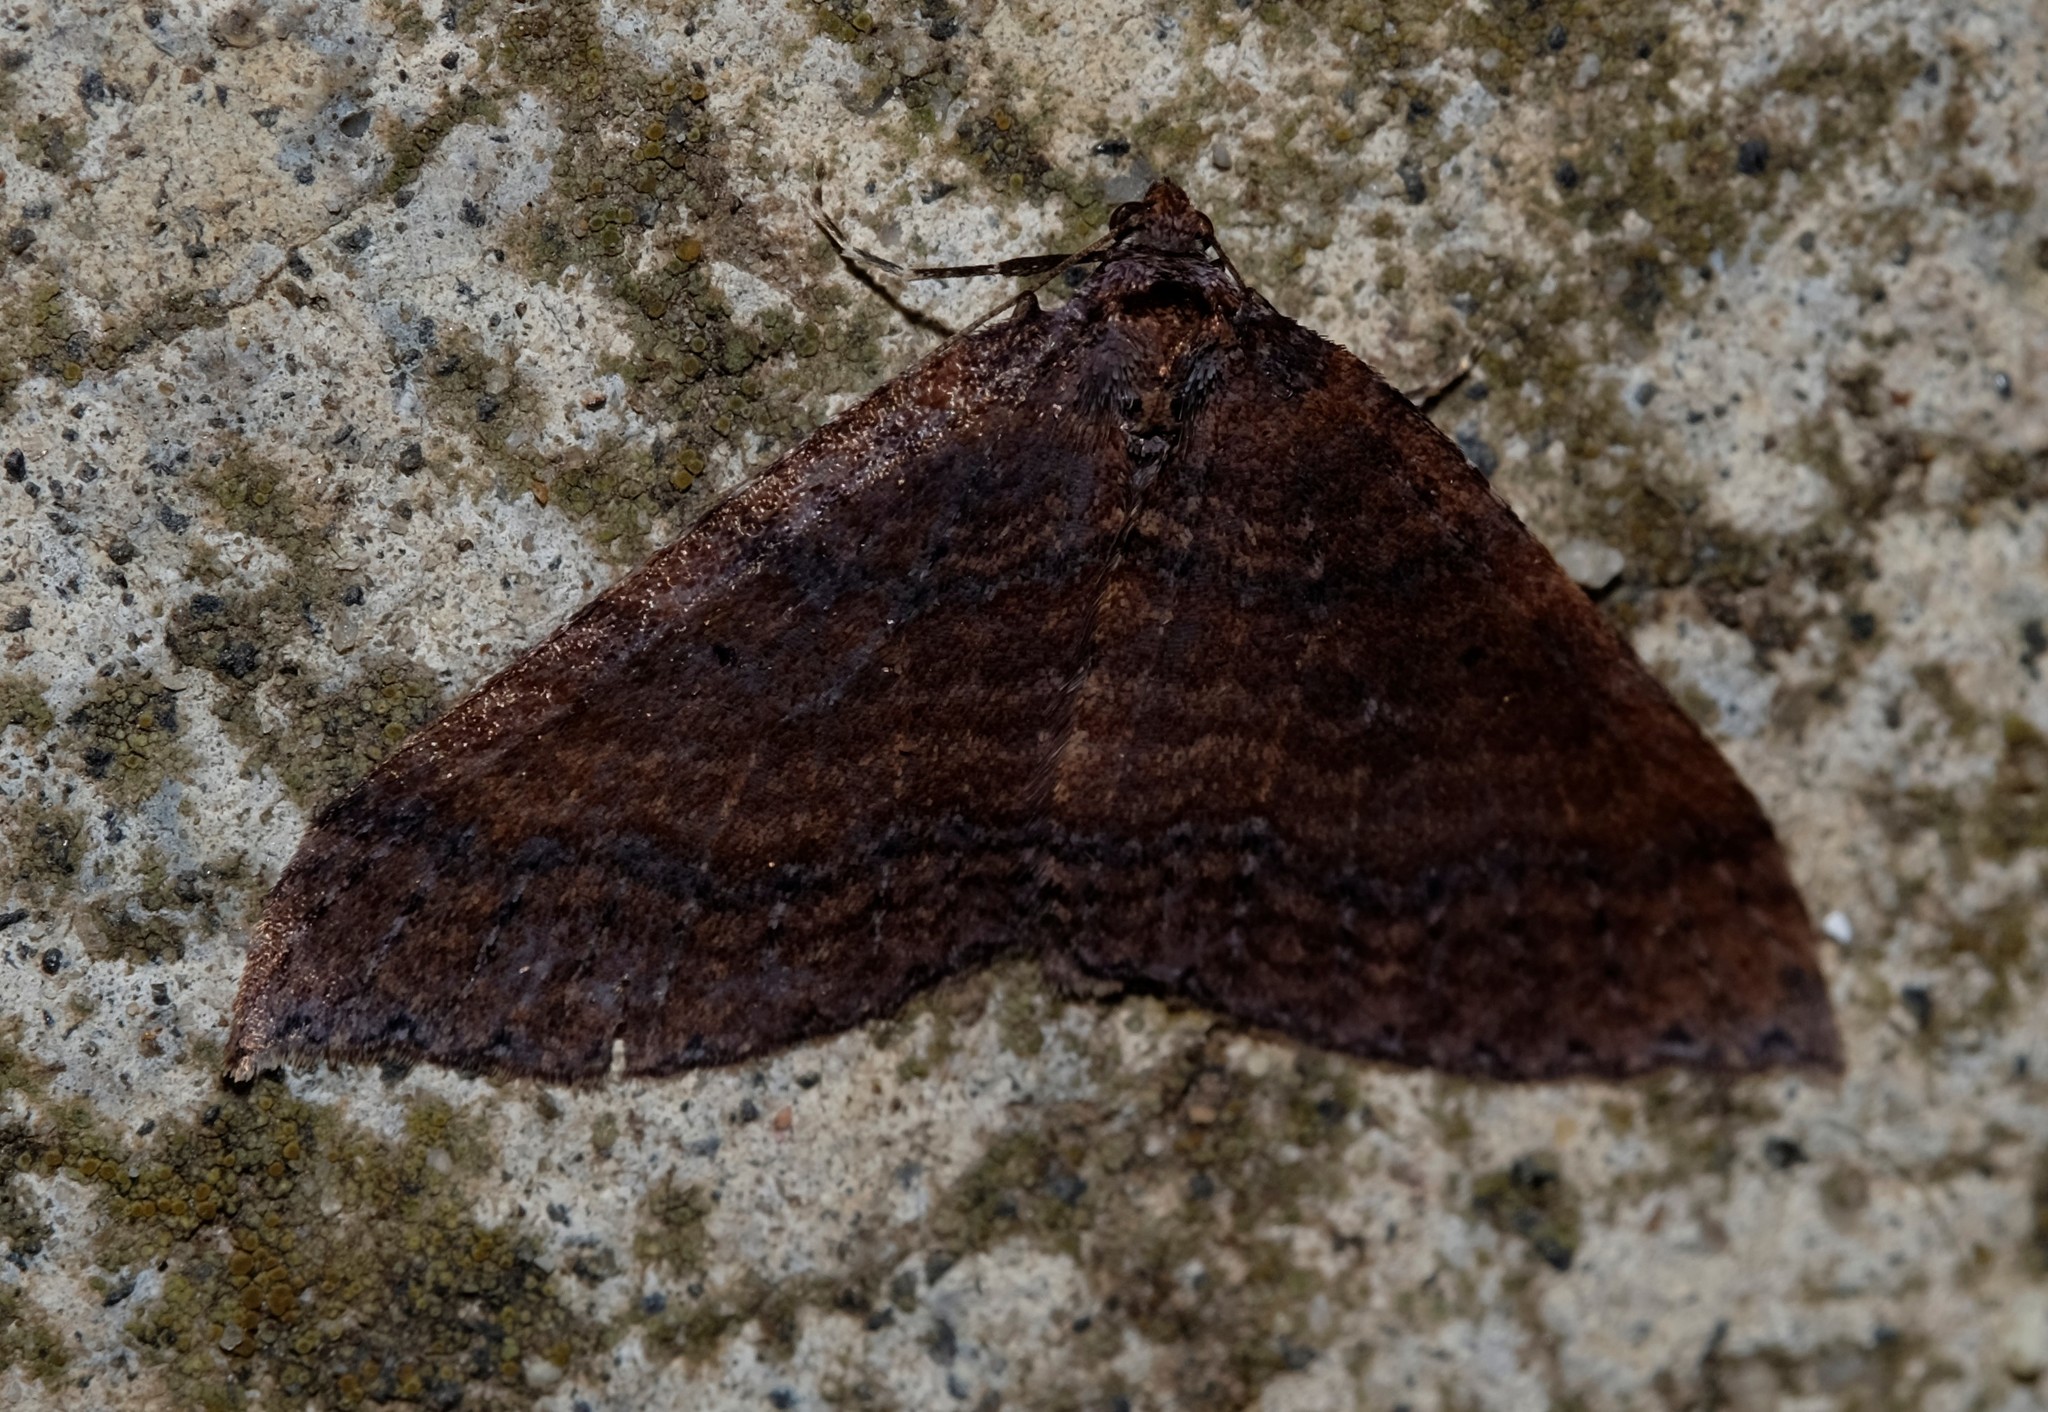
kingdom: Animalia
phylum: Arthropoda
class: Insecta
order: Lepidoptera
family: Geometridae
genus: Larentia
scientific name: Larentia apotoma
